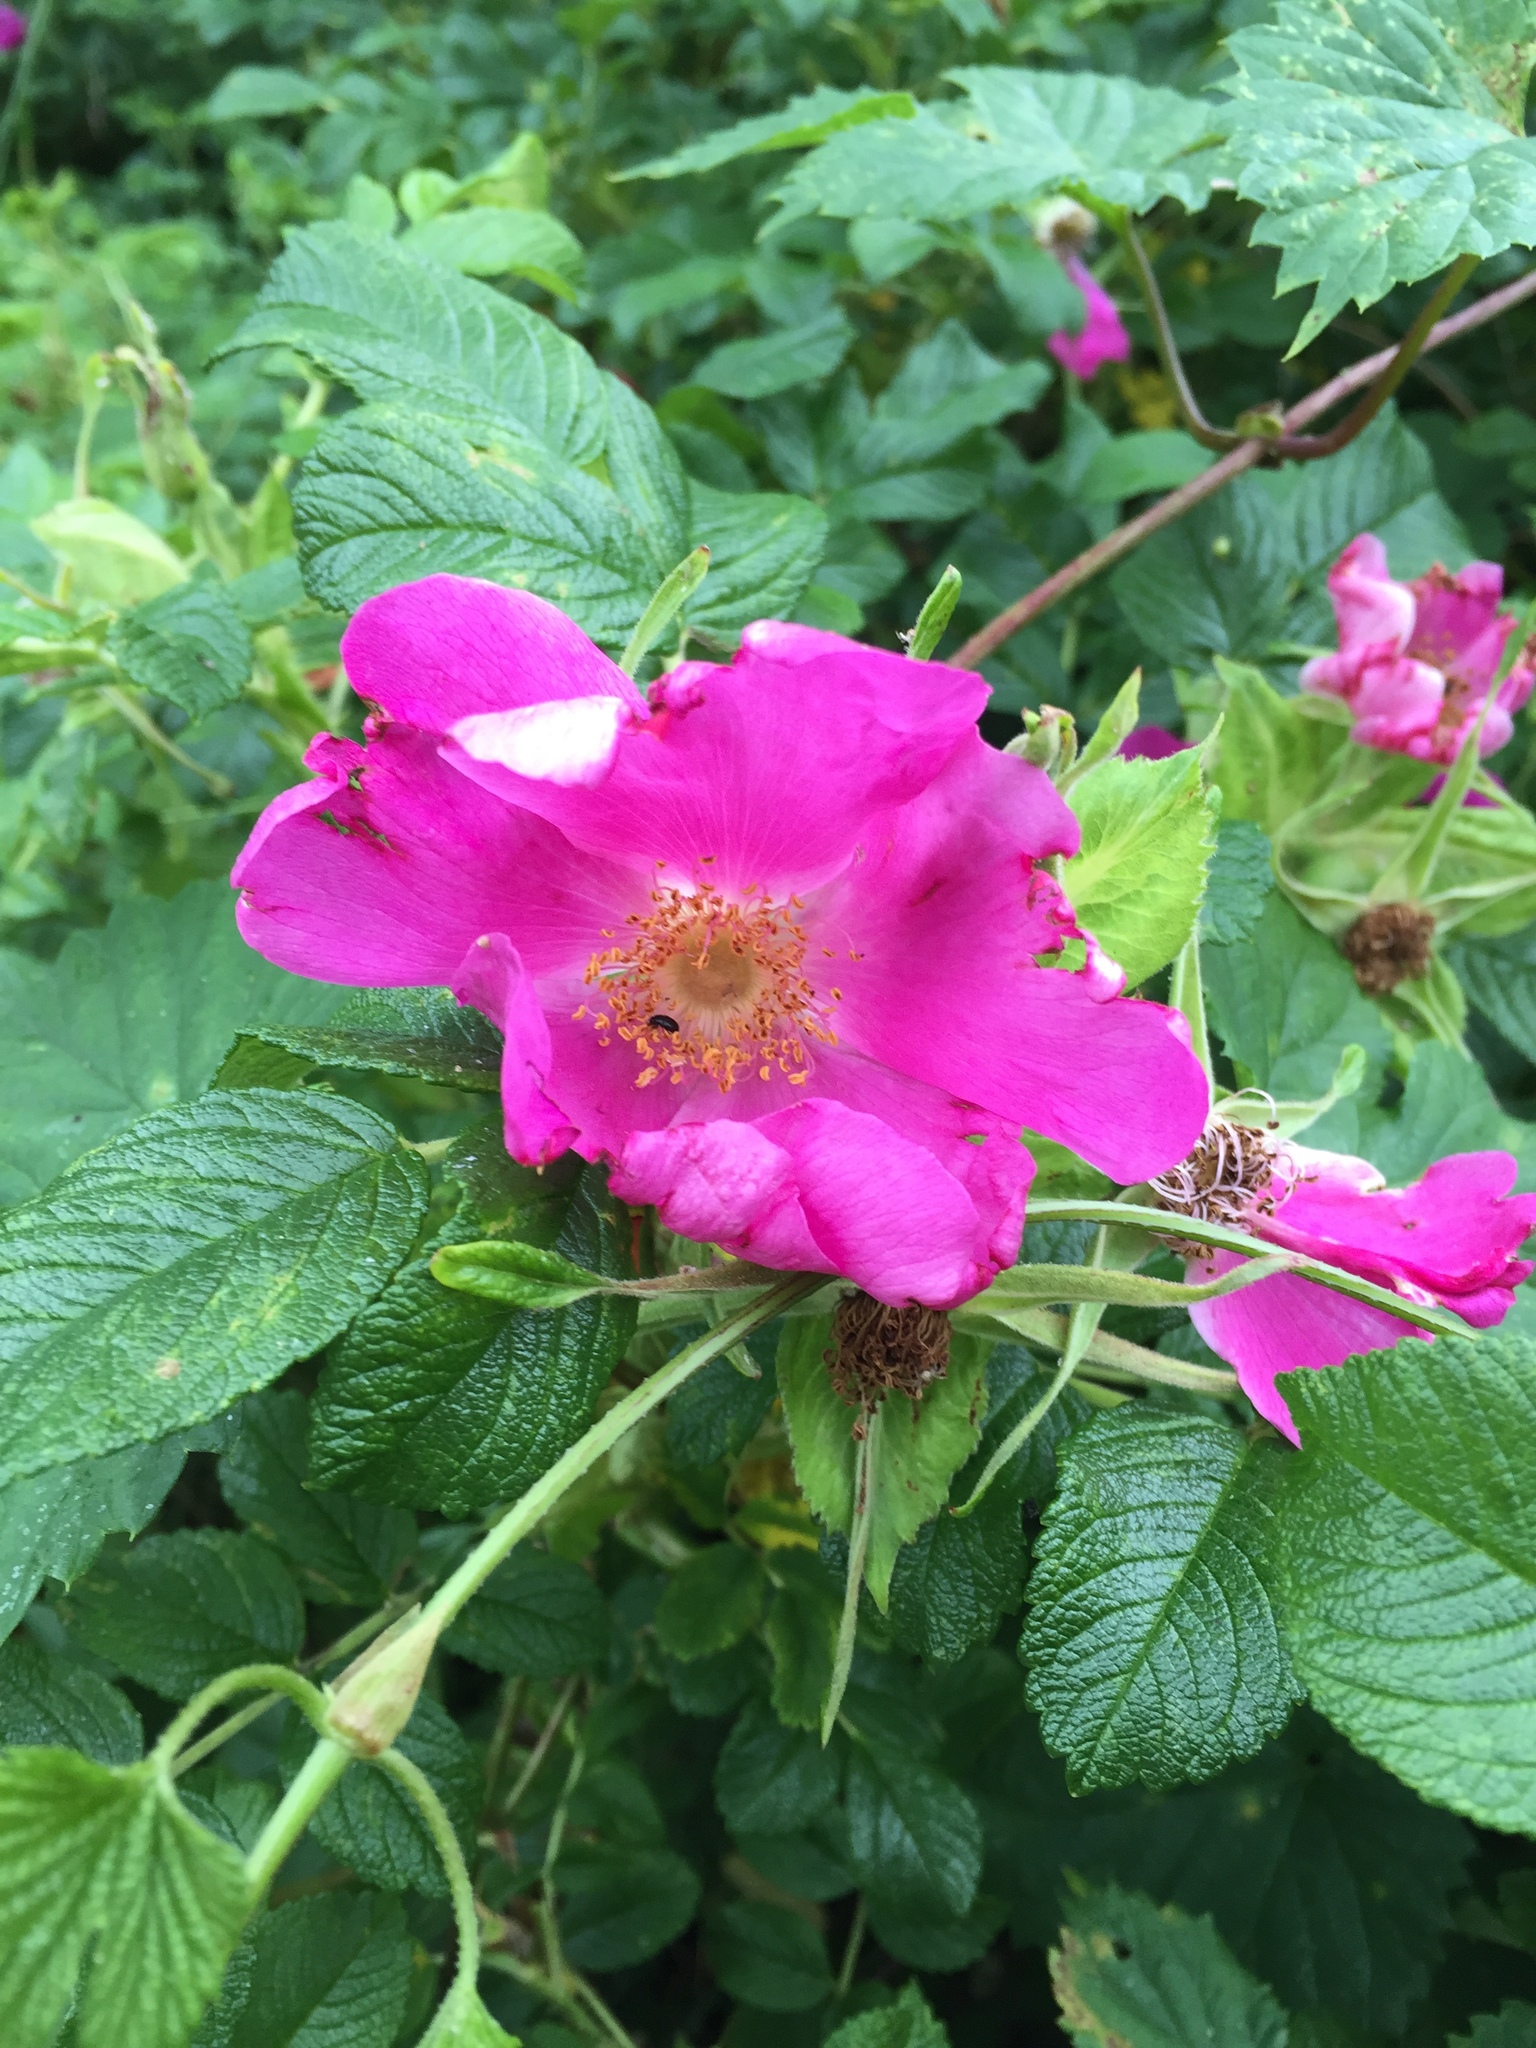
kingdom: Plantae
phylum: Tracheophyta
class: Magnoliopsida
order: Rosales
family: Rosaceae
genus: Rosa
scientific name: Rosa rugosa
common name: Japanese rose
